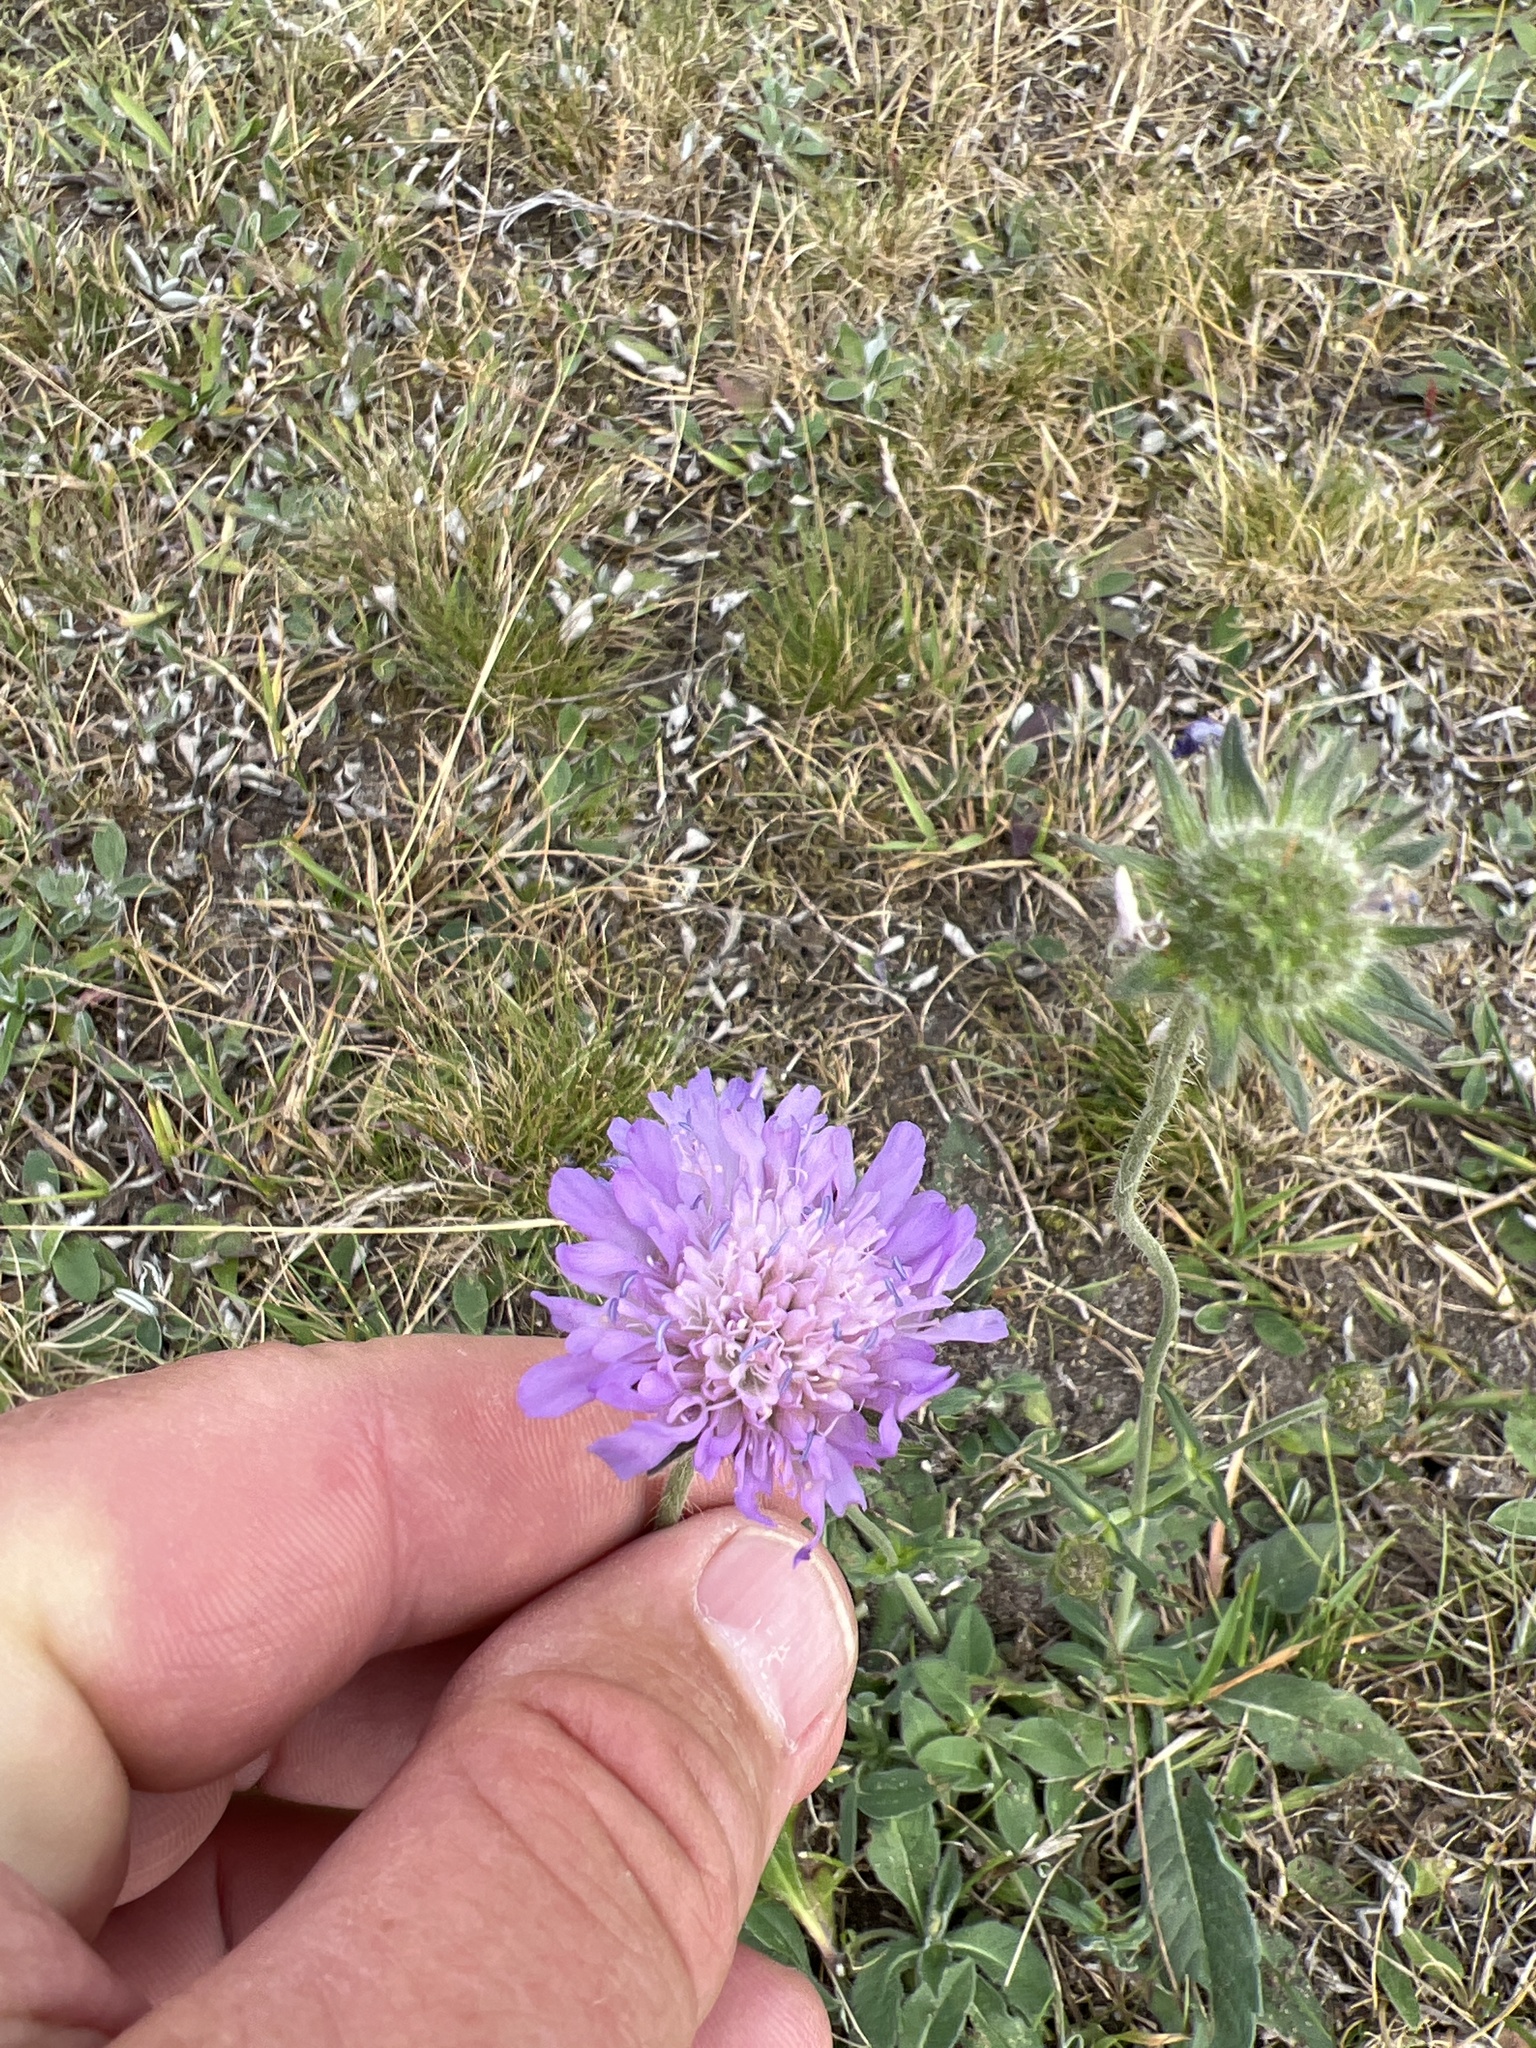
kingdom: Plantae
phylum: Tracheophyta
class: Magnoliopsida
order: Dipsacales
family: Caprifoliaceae
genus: Knautia
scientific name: Knautia arvensis
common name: Field scabiosa
